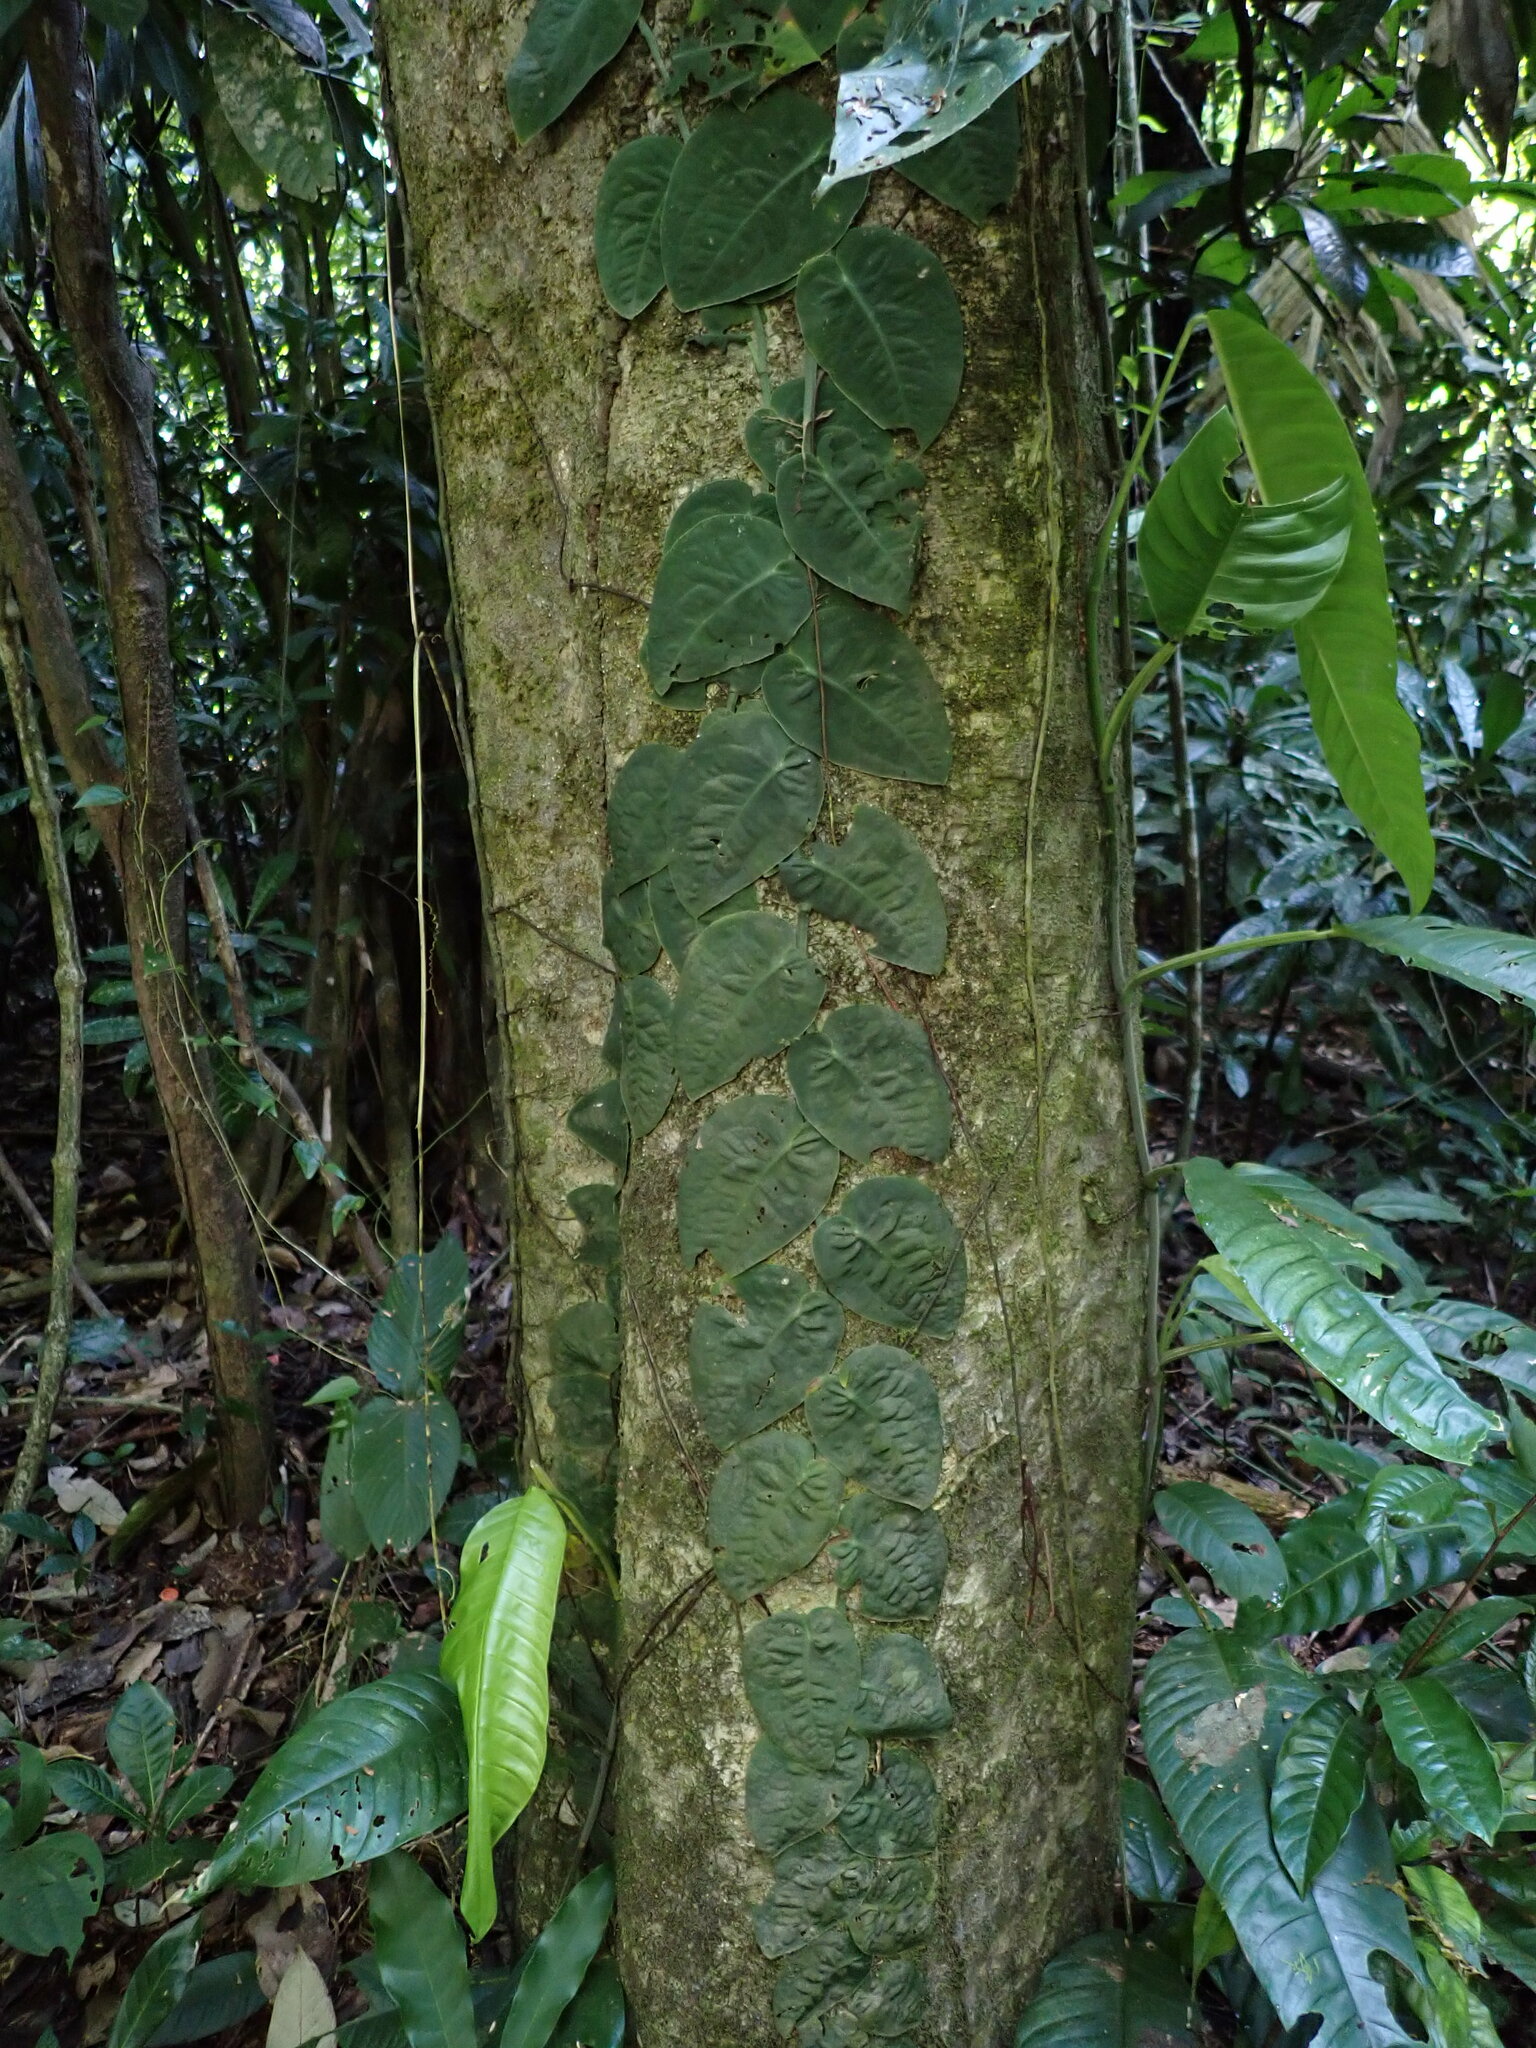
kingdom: Plantae
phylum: Tracheophyta
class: Liliopsida
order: Alismatales
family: Araceae
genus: Monstera
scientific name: Monstera dubia
